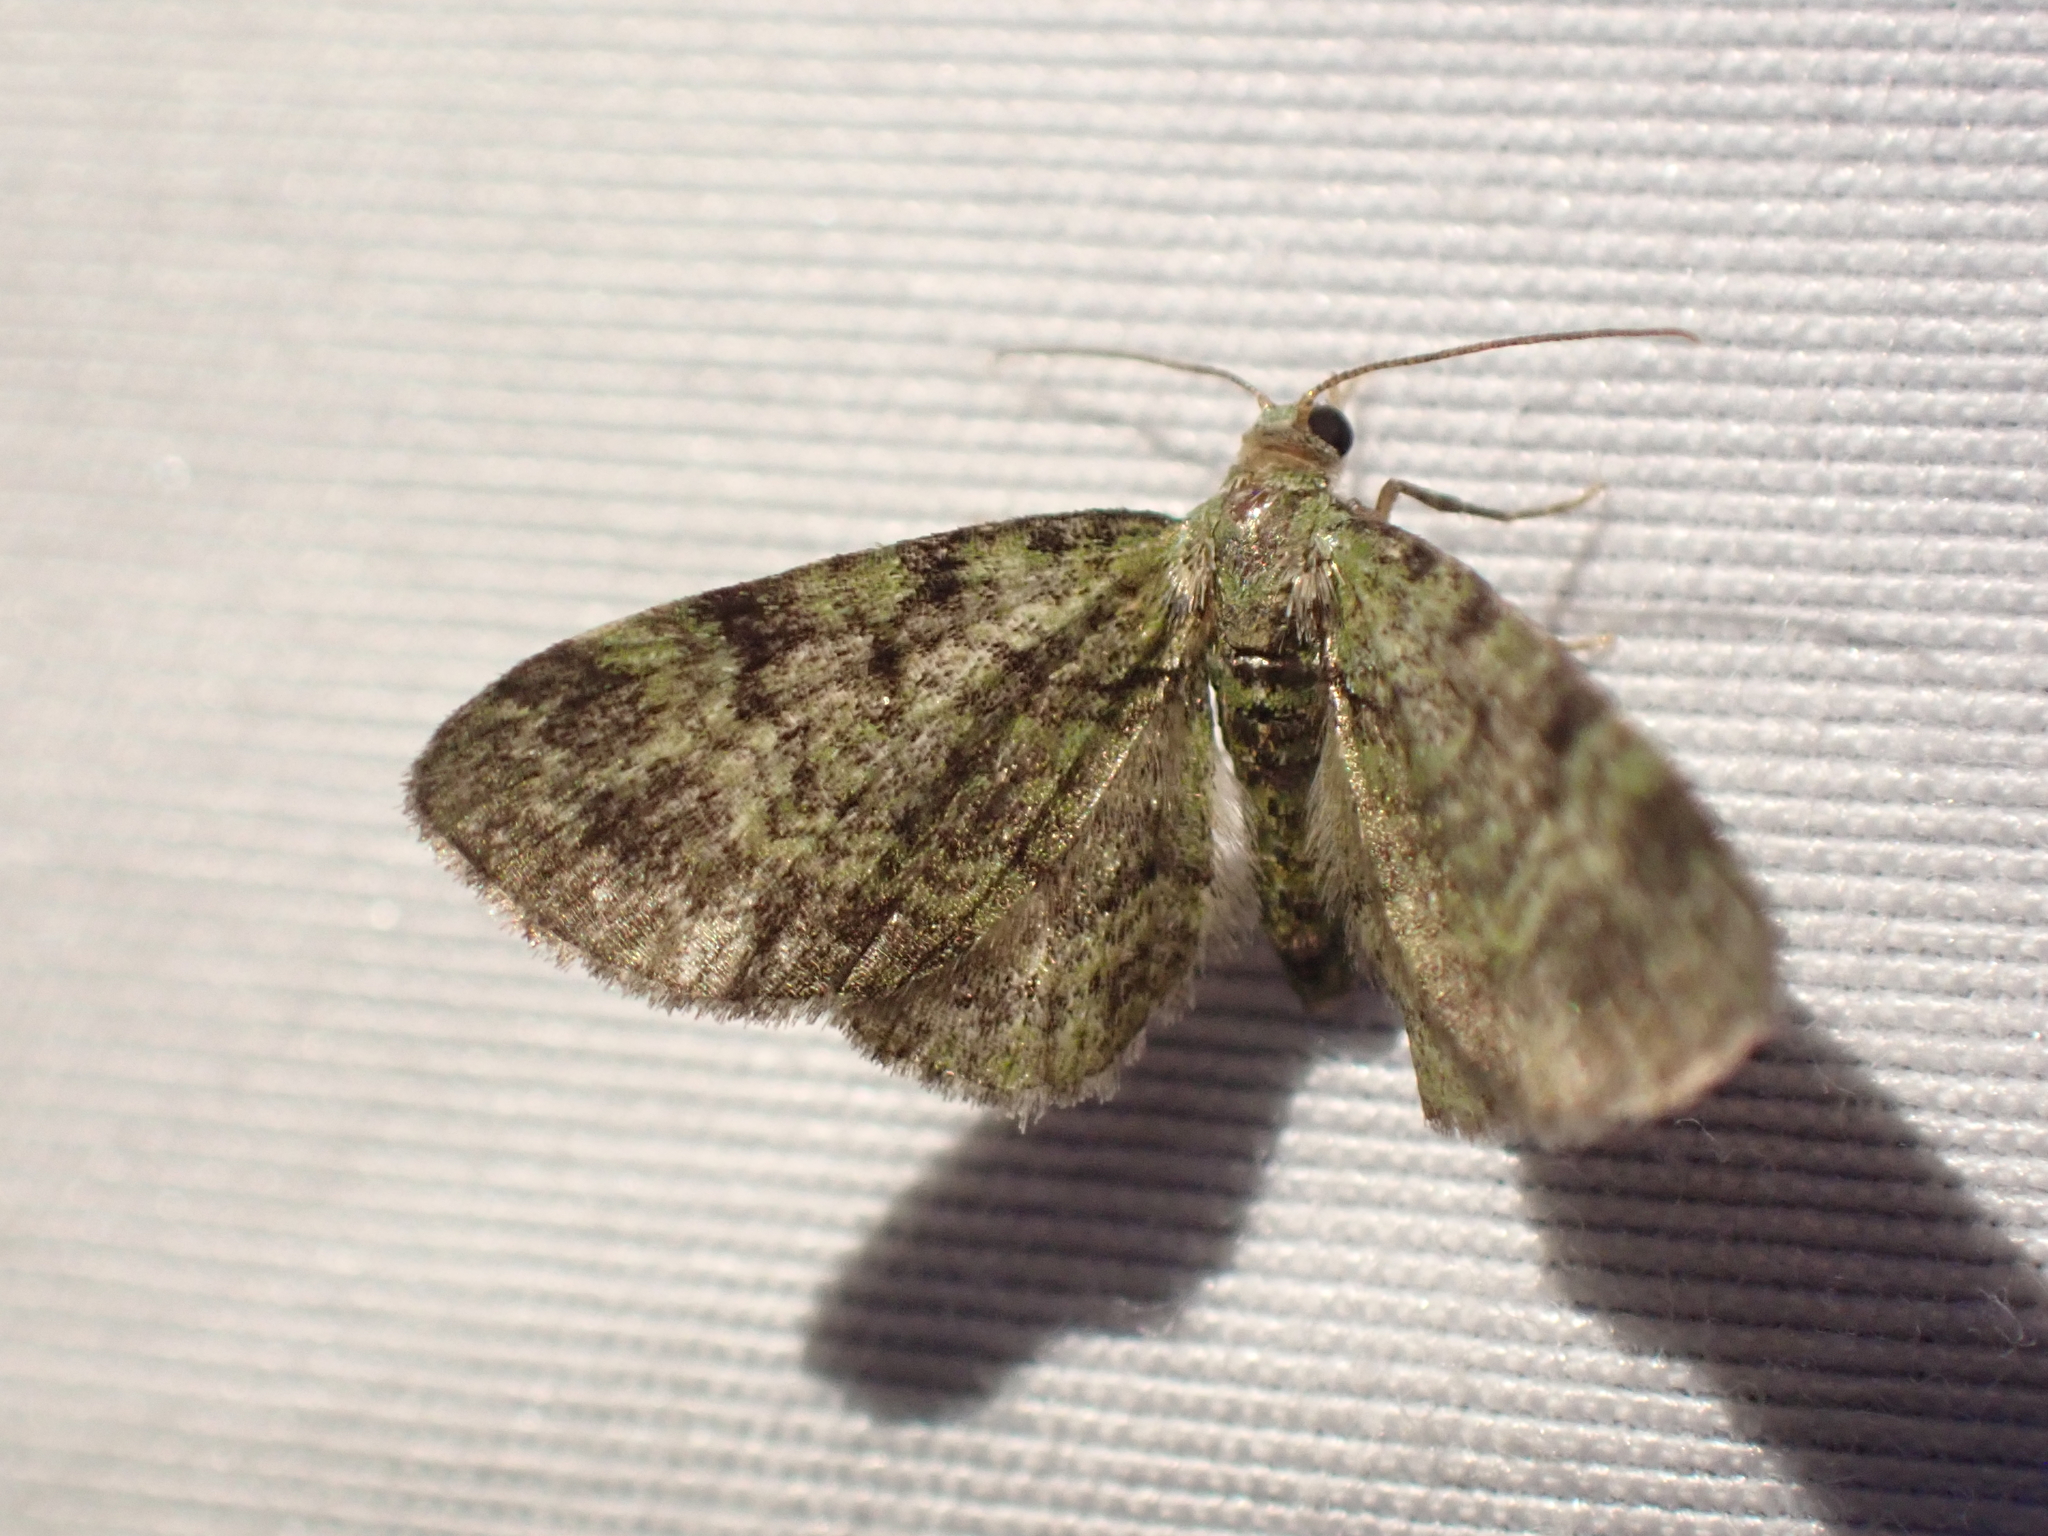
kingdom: Animalia
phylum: Arthropoda
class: Insecta
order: Lepidoptera
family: Geometridae
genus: Pasiphila
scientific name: Pasiphila rectangulata
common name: Green pug
